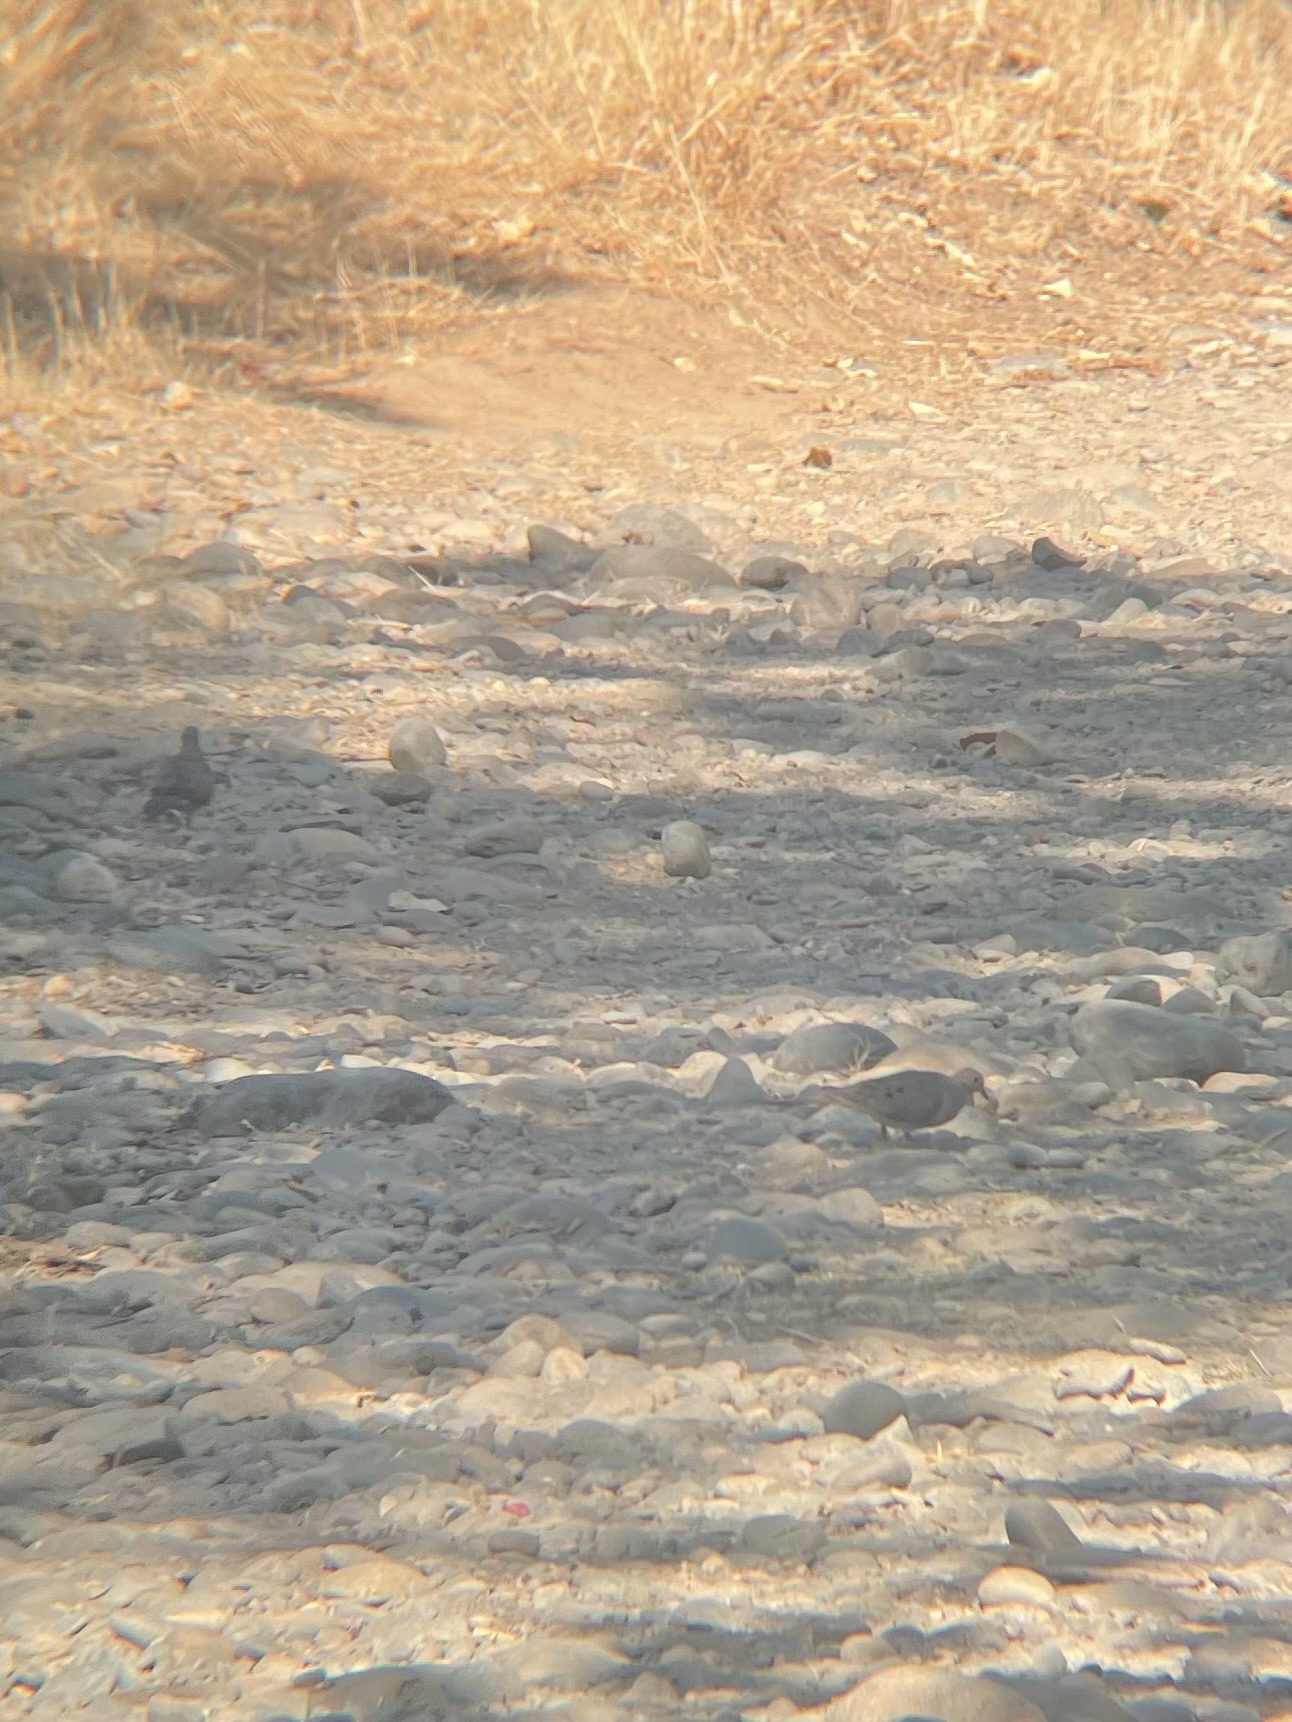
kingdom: Animalia
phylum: Chordata
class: Aves
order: Columbiformes
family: Columbidae
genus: Zenaida
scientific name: Zenaida macroura
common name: Mourning dove
